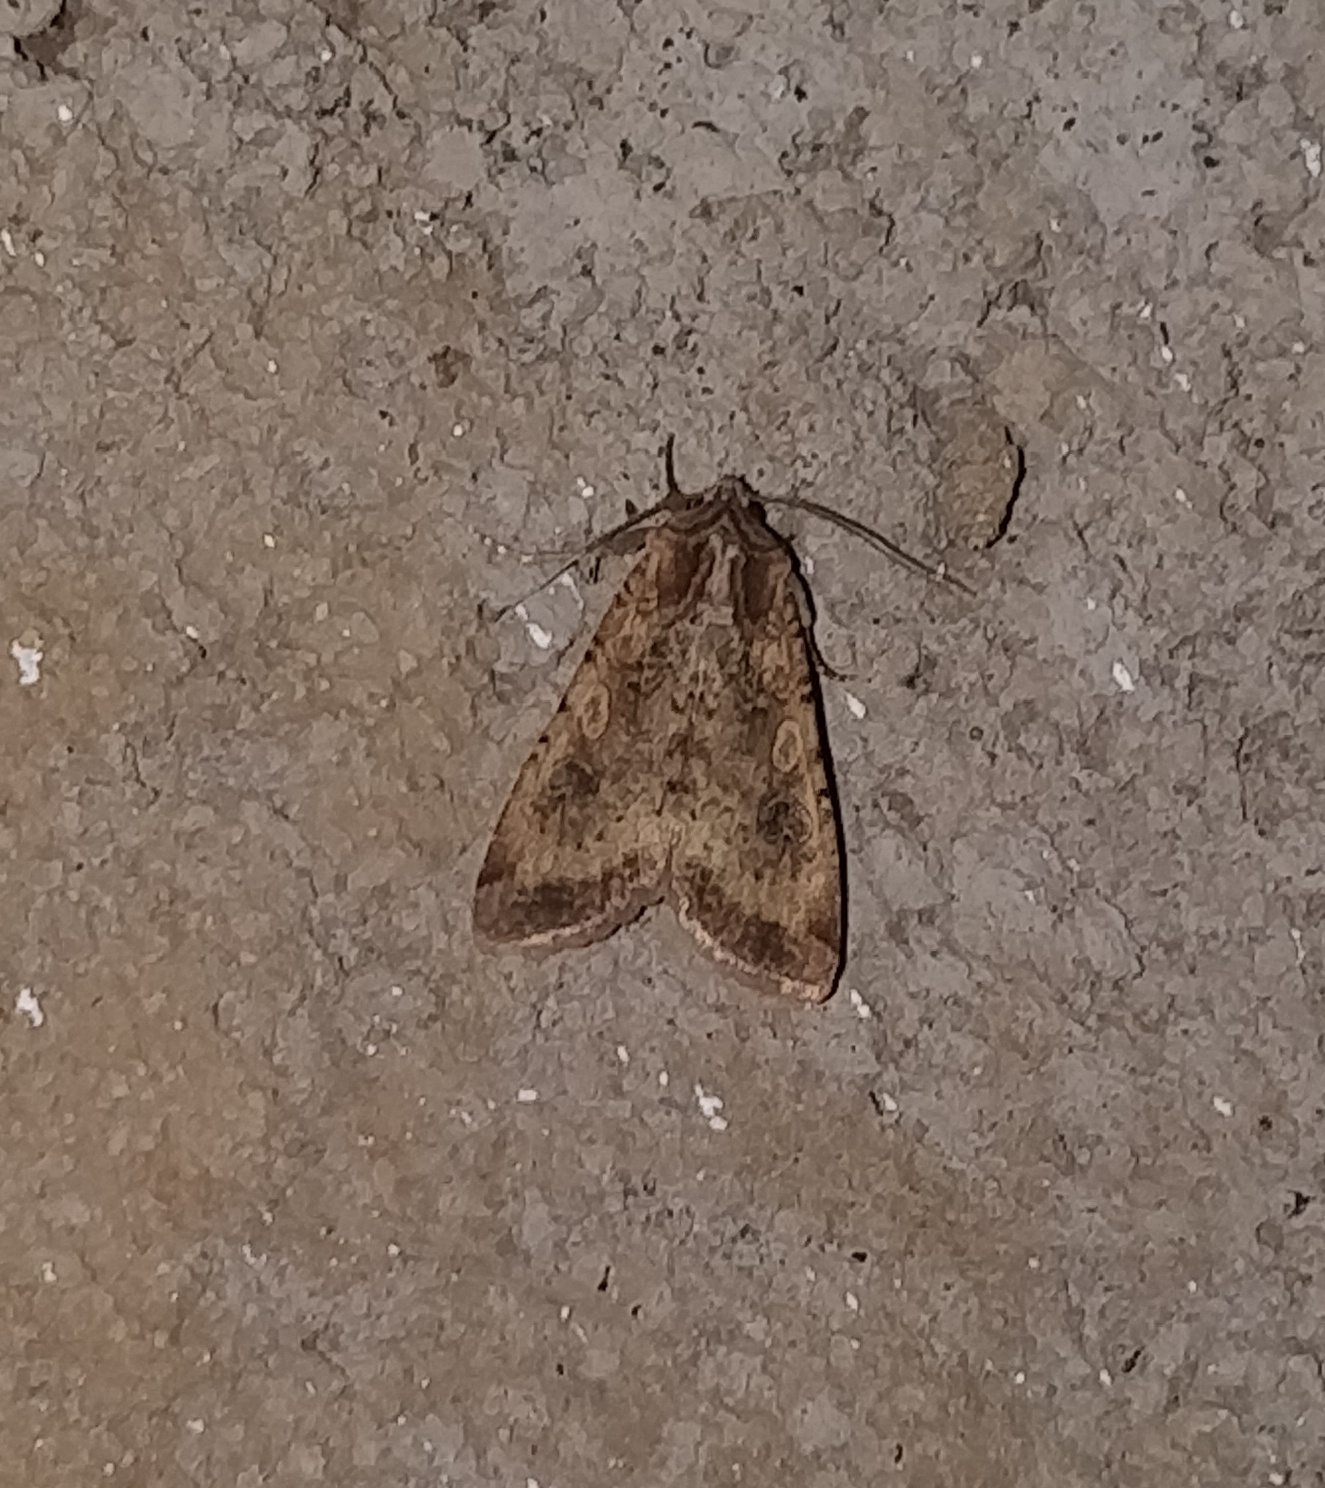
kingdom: Animalia
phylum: Arthropoda
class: Insecta
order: Lepidoptera
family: Noctuidae
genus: Peridroma
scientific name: Peridroma saucia
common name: Pearly underwing
